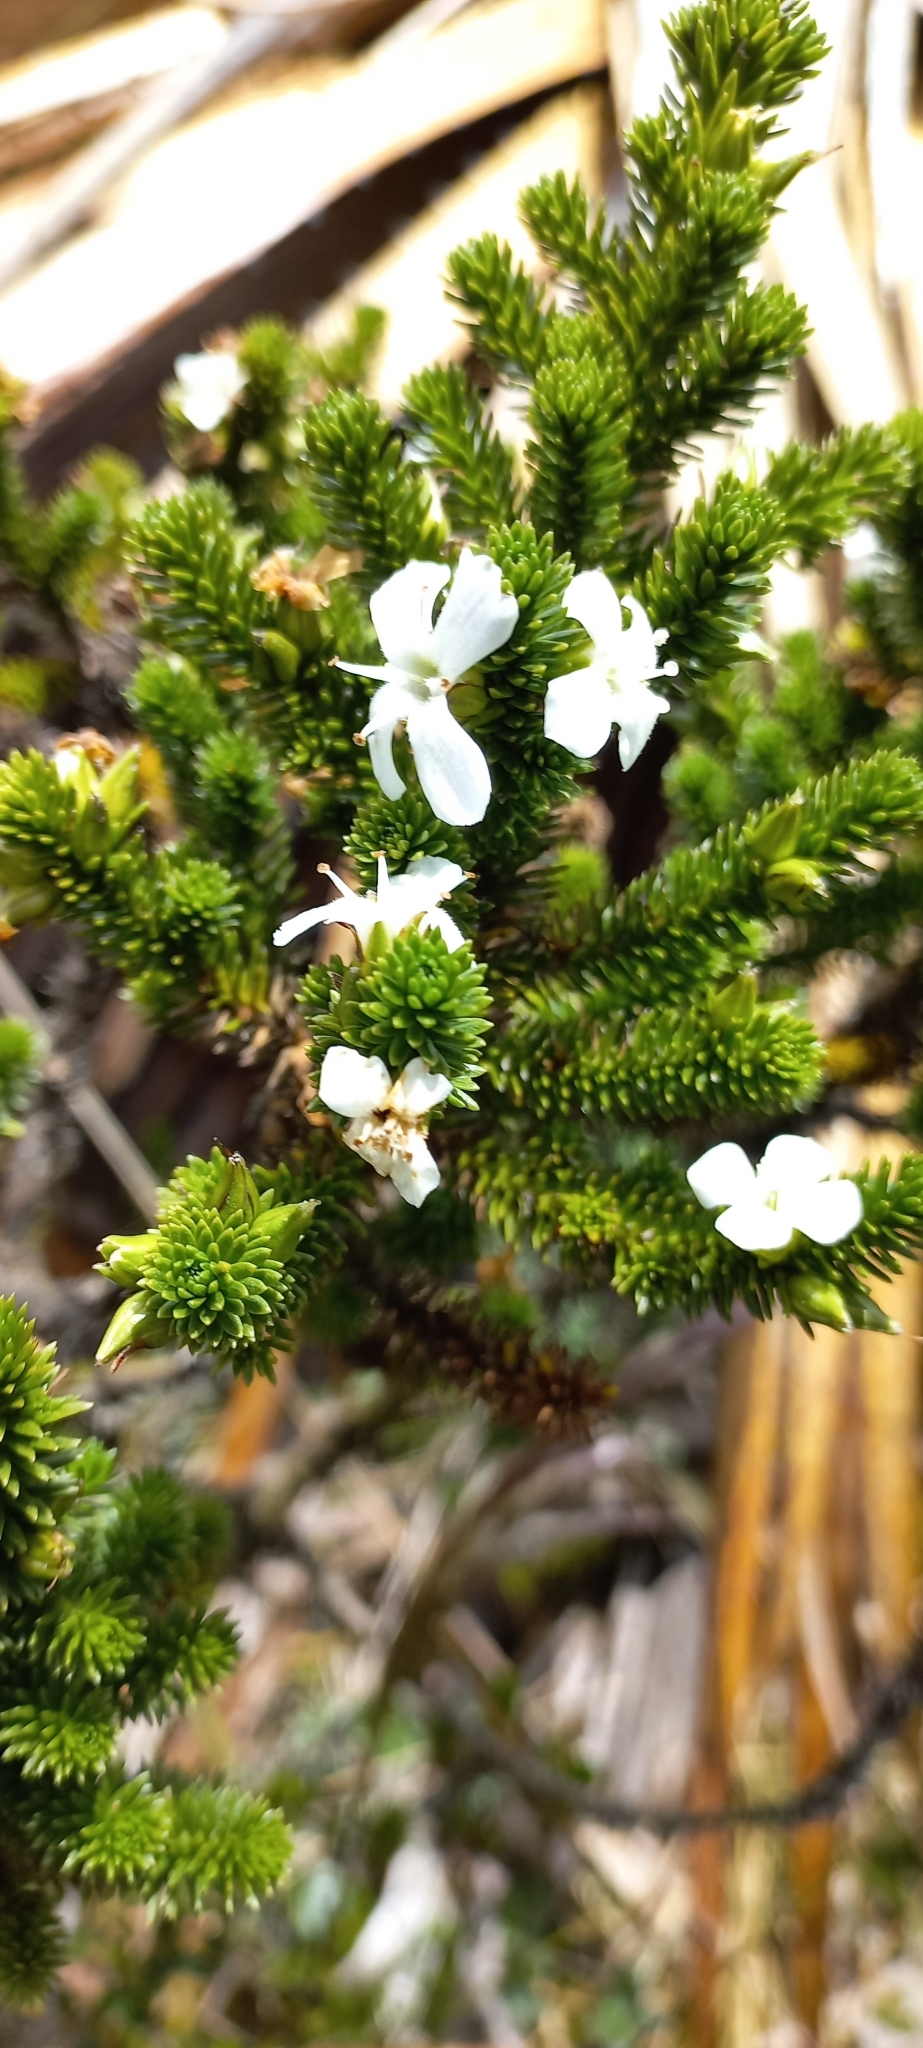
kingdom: Plantae
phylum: Tracheophyta
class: Magnoliopsida
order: Lamiales
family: Plantaginaceae
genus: Aragoa
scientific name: Aragoa abietina
